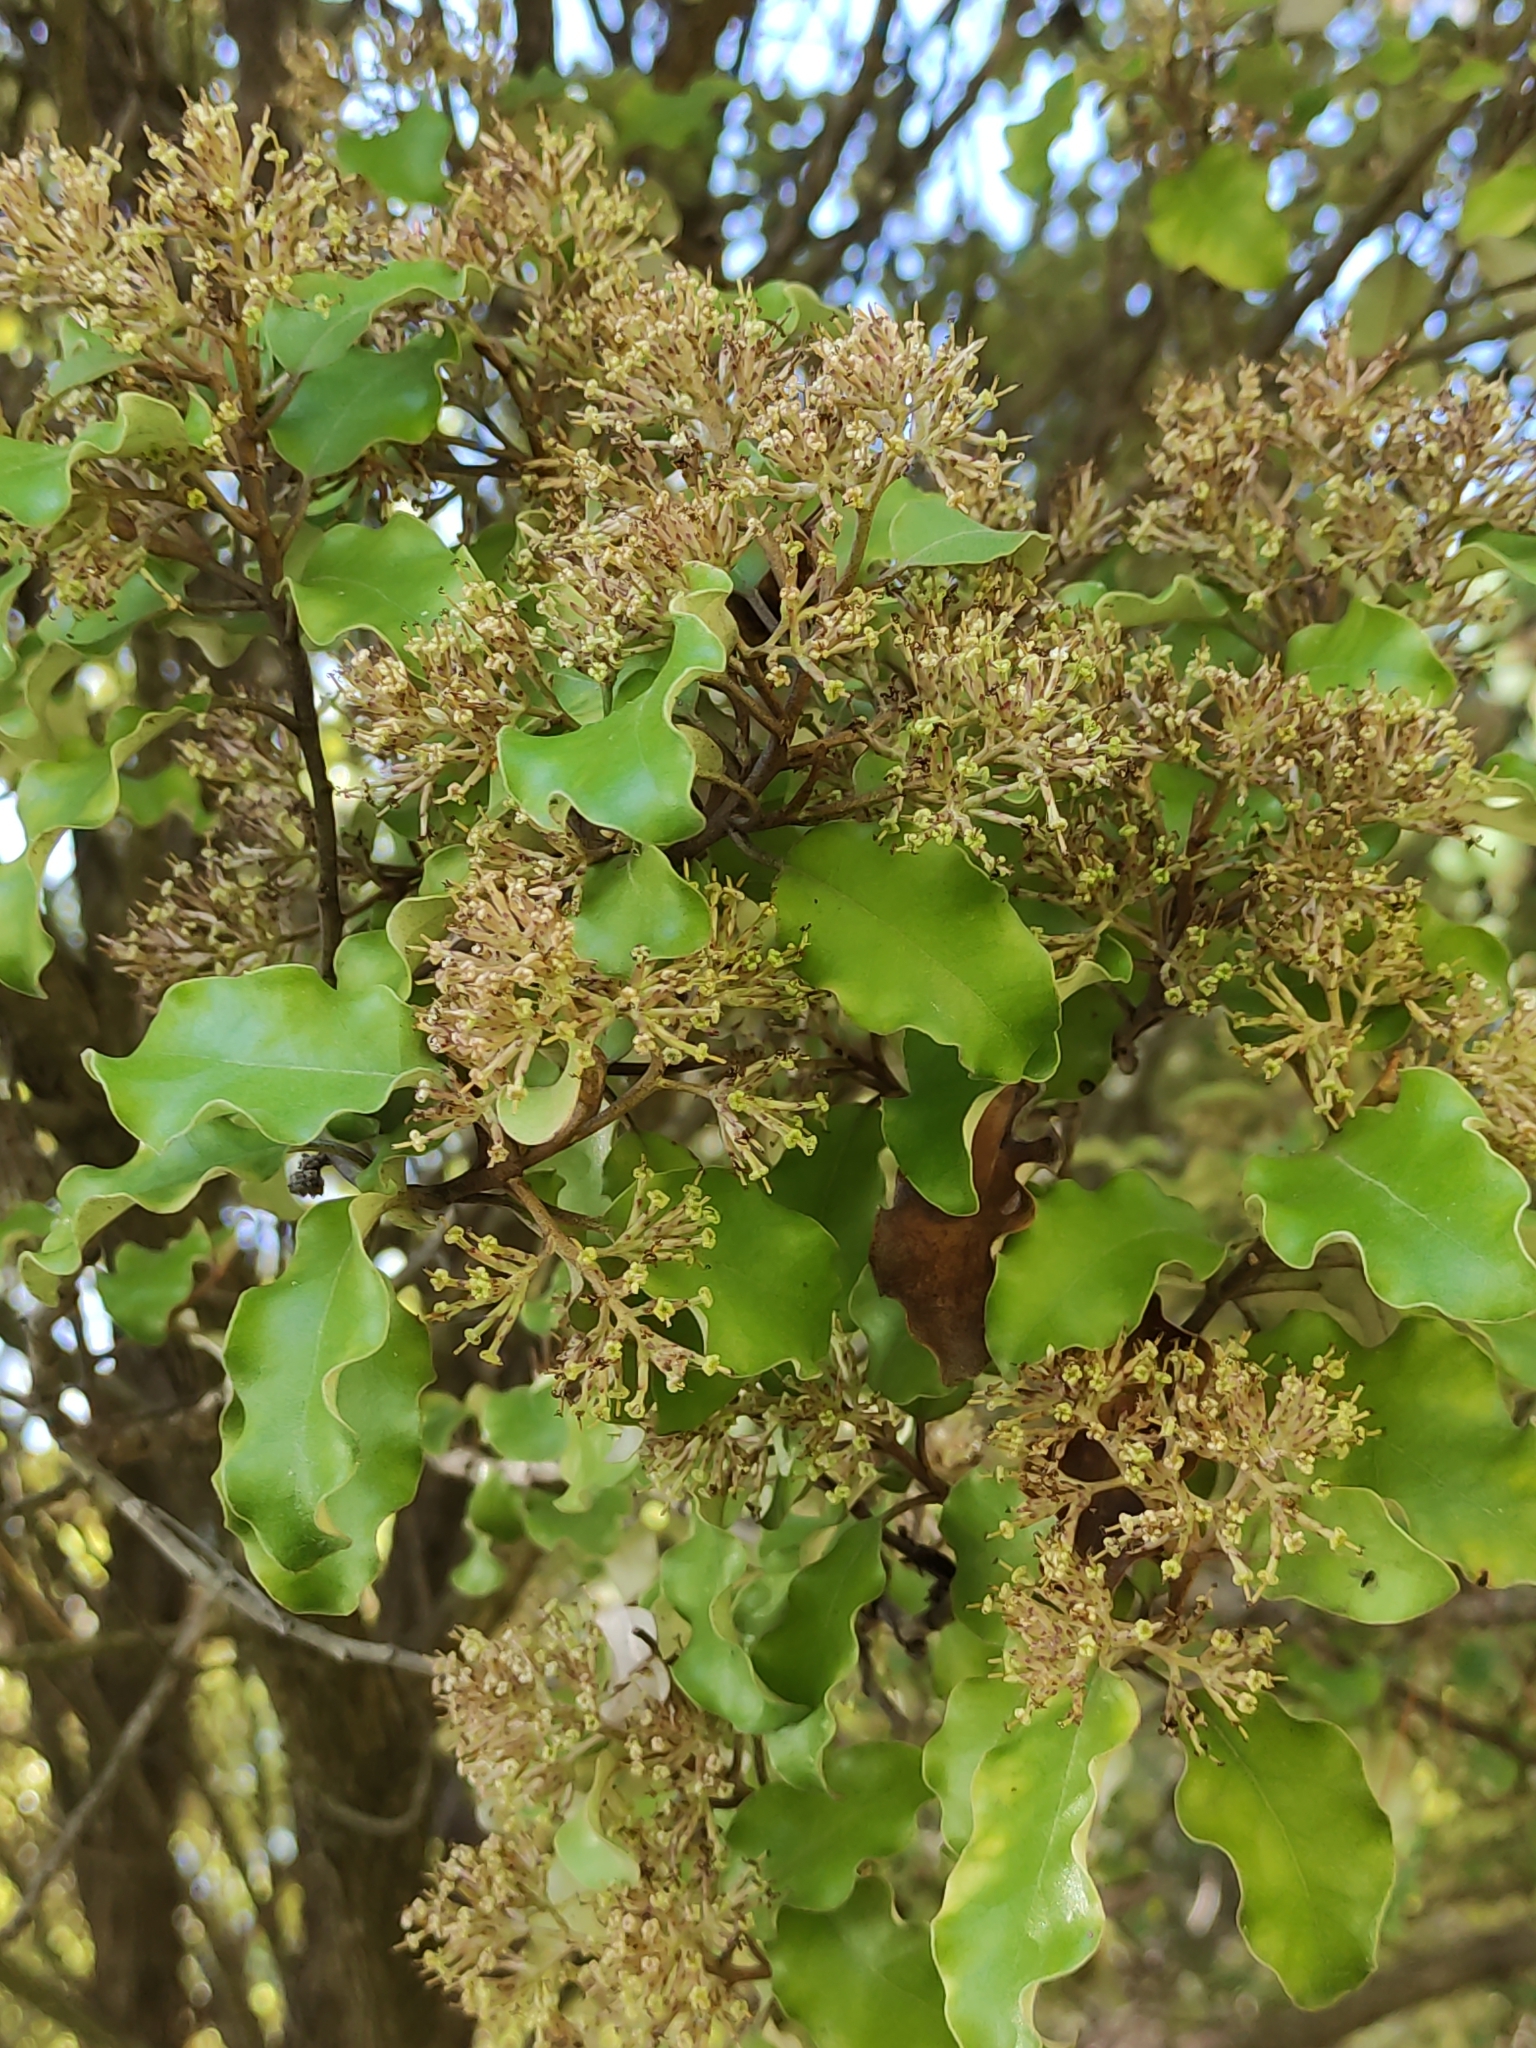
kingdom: Plantae
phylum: Tracheophyta
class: Magnoliopsida
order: Asterales
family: Asteraceae
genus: Olearia
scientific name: Olearia paniculata
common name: Akiraho
